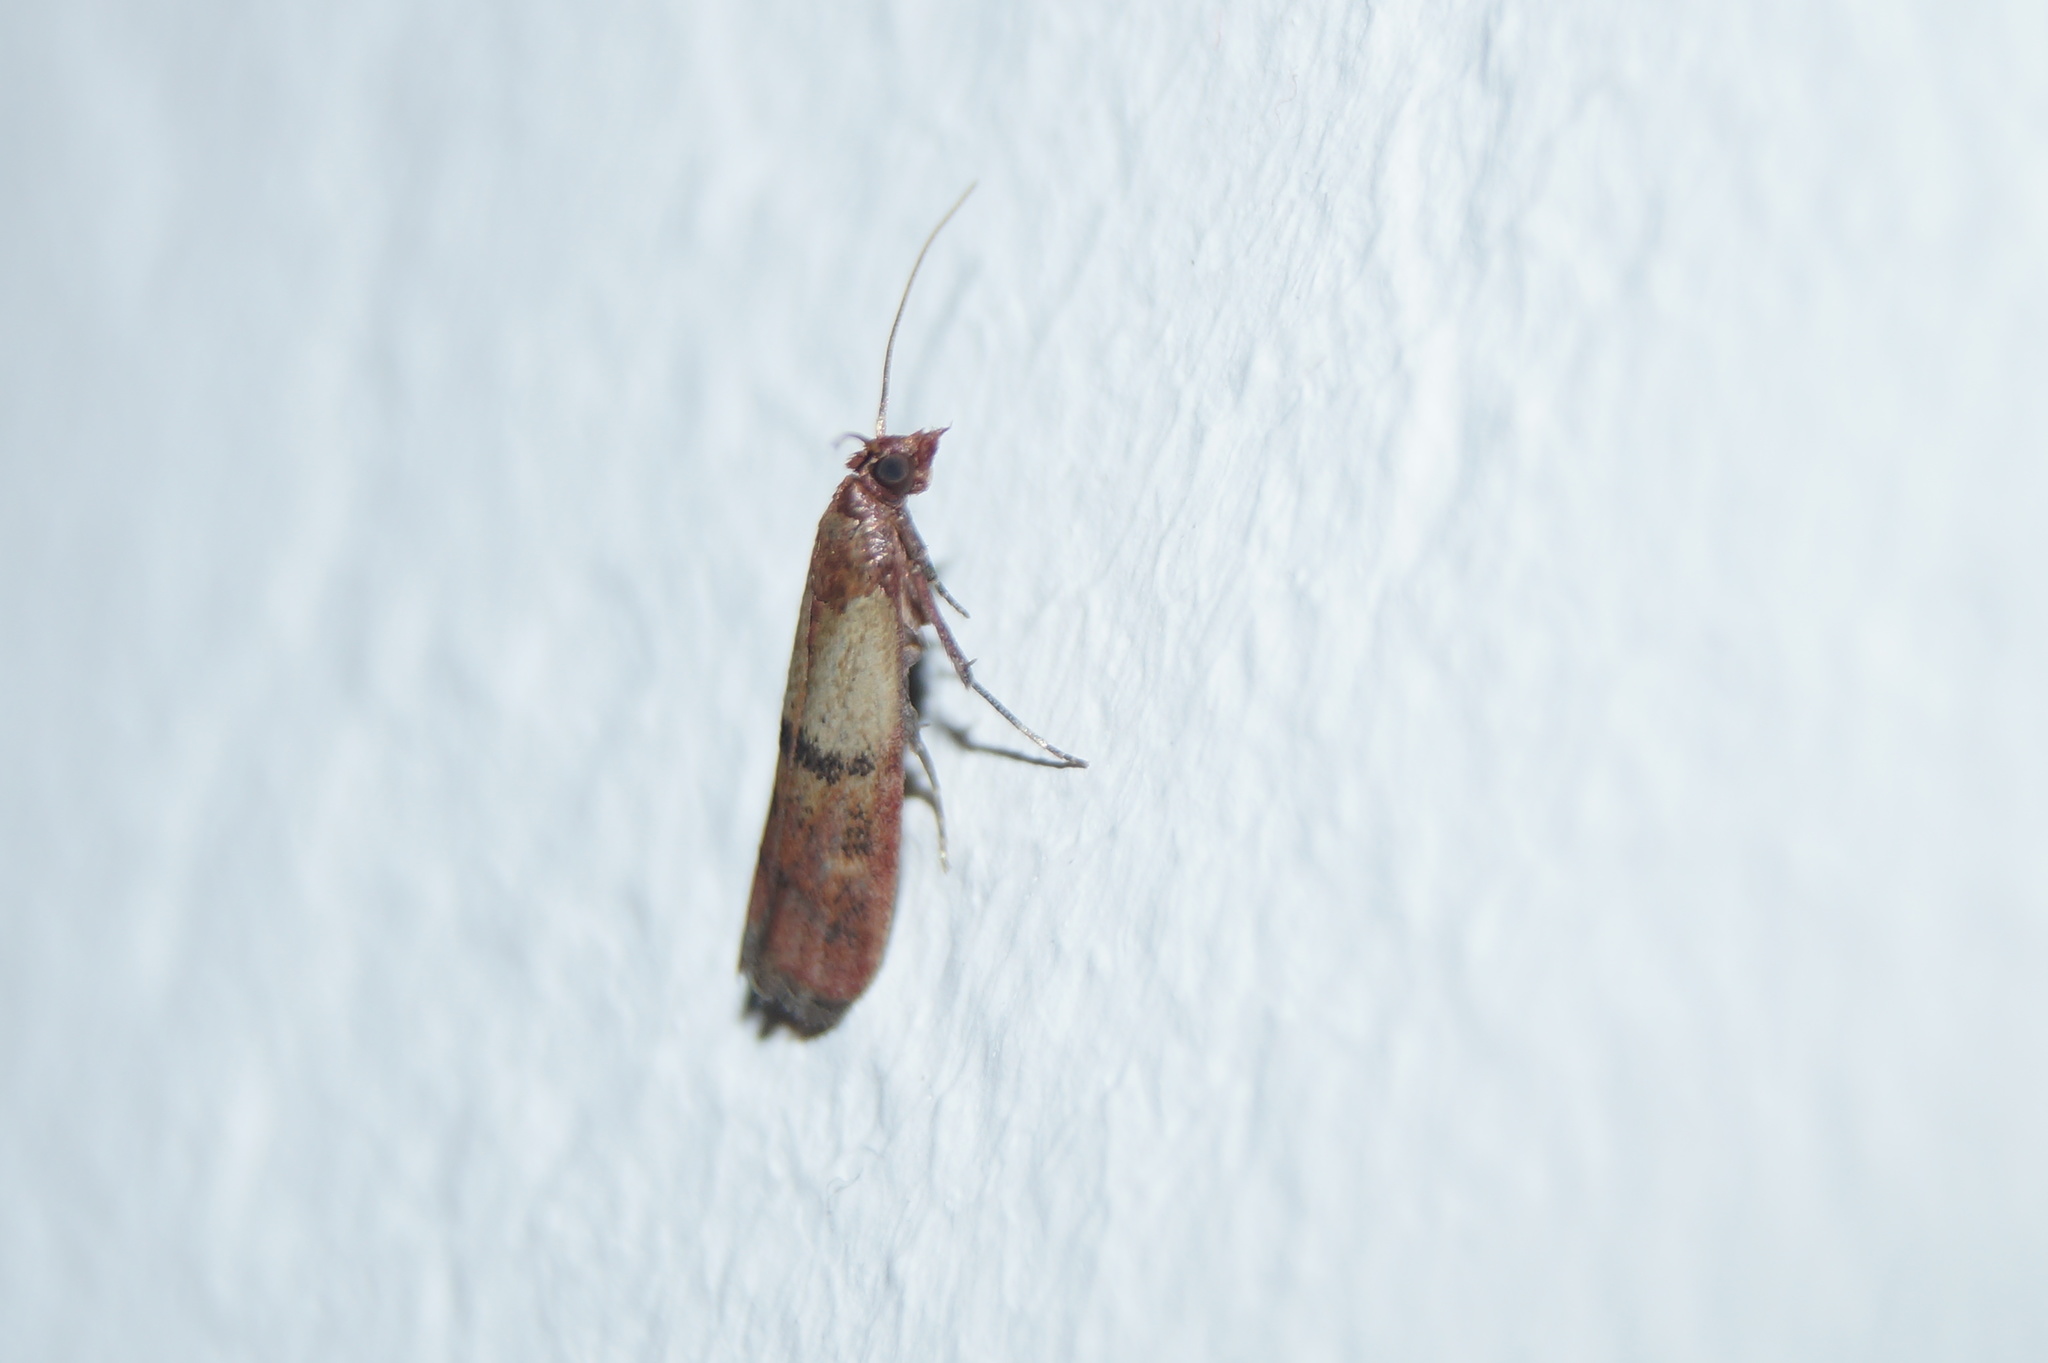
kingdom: Animalia
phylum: Arthropoda
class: Insecta
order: Lepidoptera
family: Pyralidae
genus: Plodia
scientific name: Plodia interpunctella
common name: Indian meal moth
